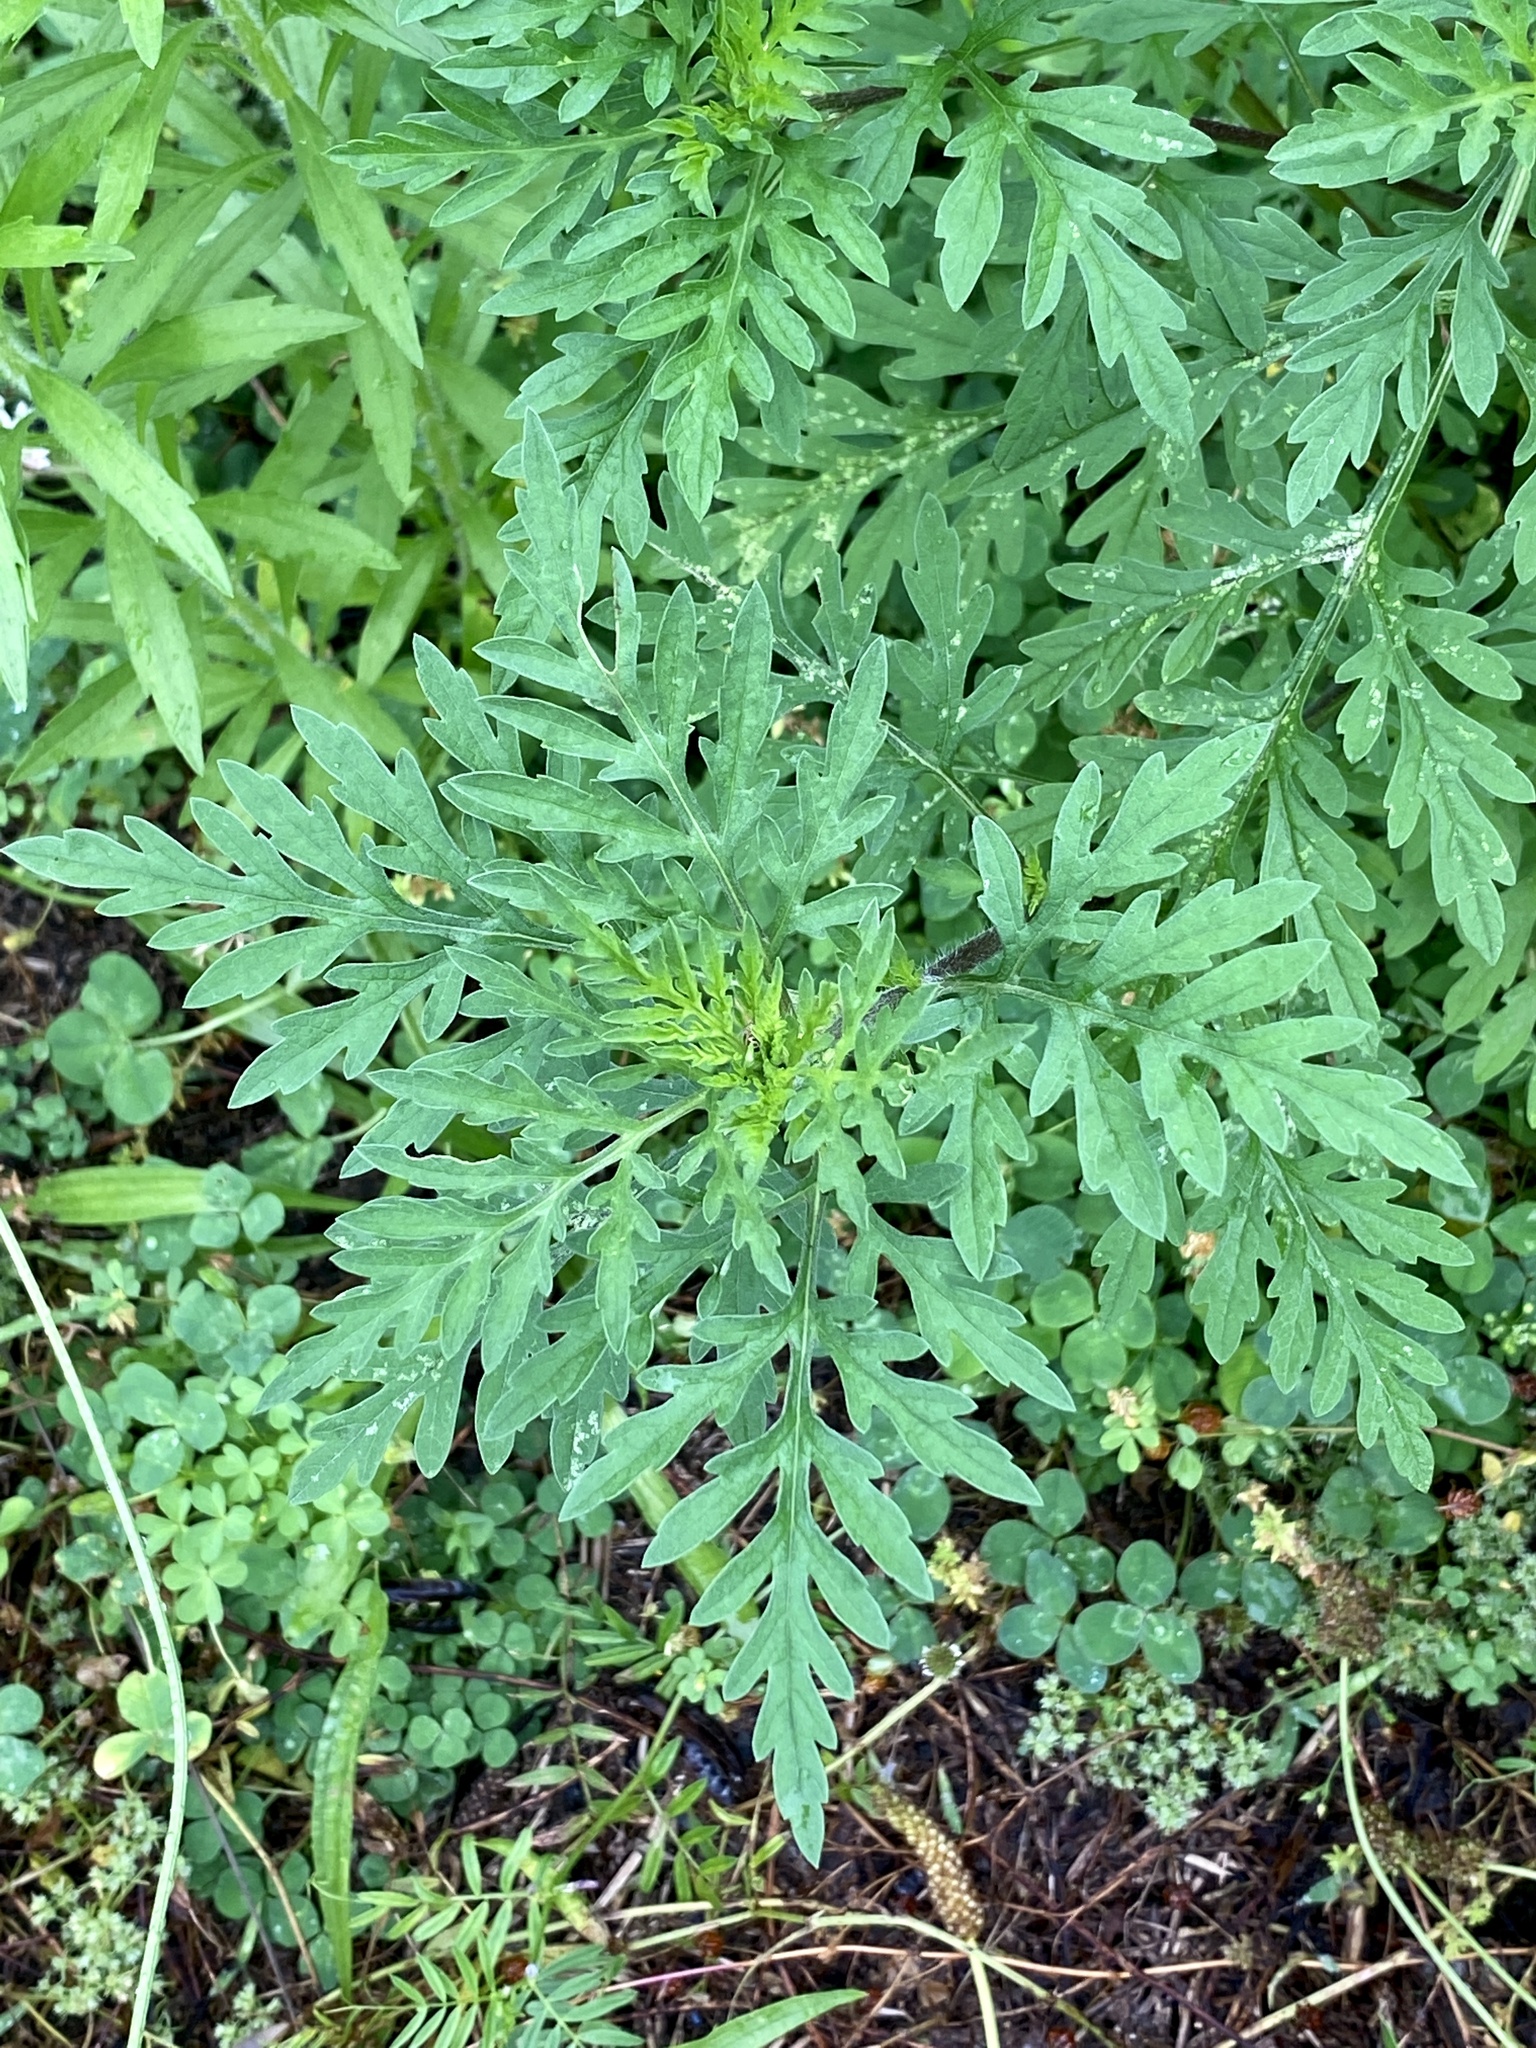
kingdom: Plantae
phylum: Tracheophyta
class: Magnoliopsida
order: Asterales
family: Asteraceae
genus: Ambrosia
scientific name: Ambrosia artemisiifolia
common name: Annual ragweed
